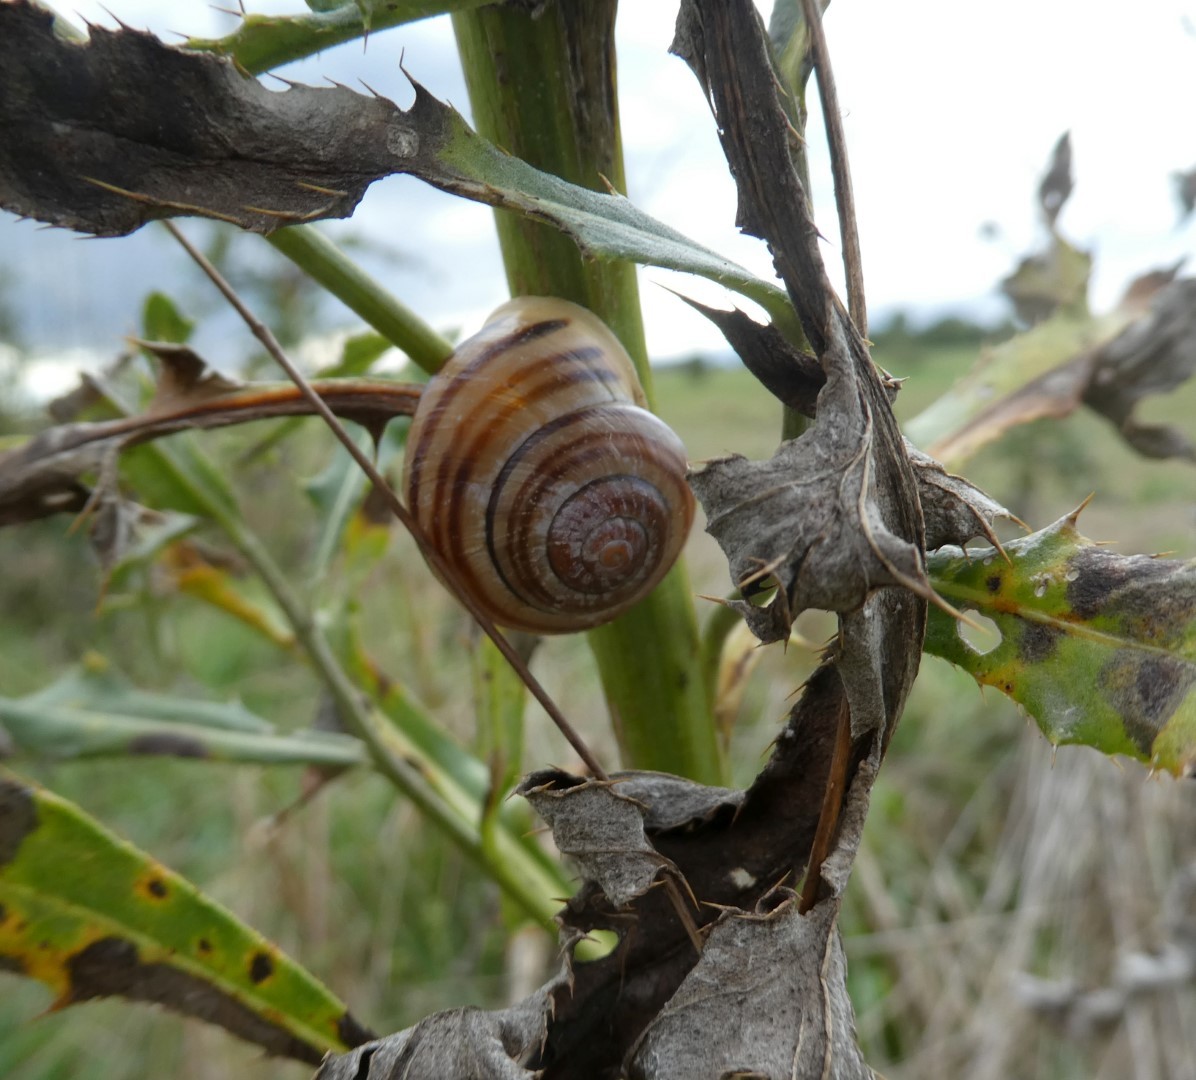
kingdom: Animalia
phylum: Mollusca
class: Gastropoda
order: Stylommatophora
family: Helicidae
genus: Cepaea
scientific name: Cepaea hortensis
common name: White-lip gardensnail
